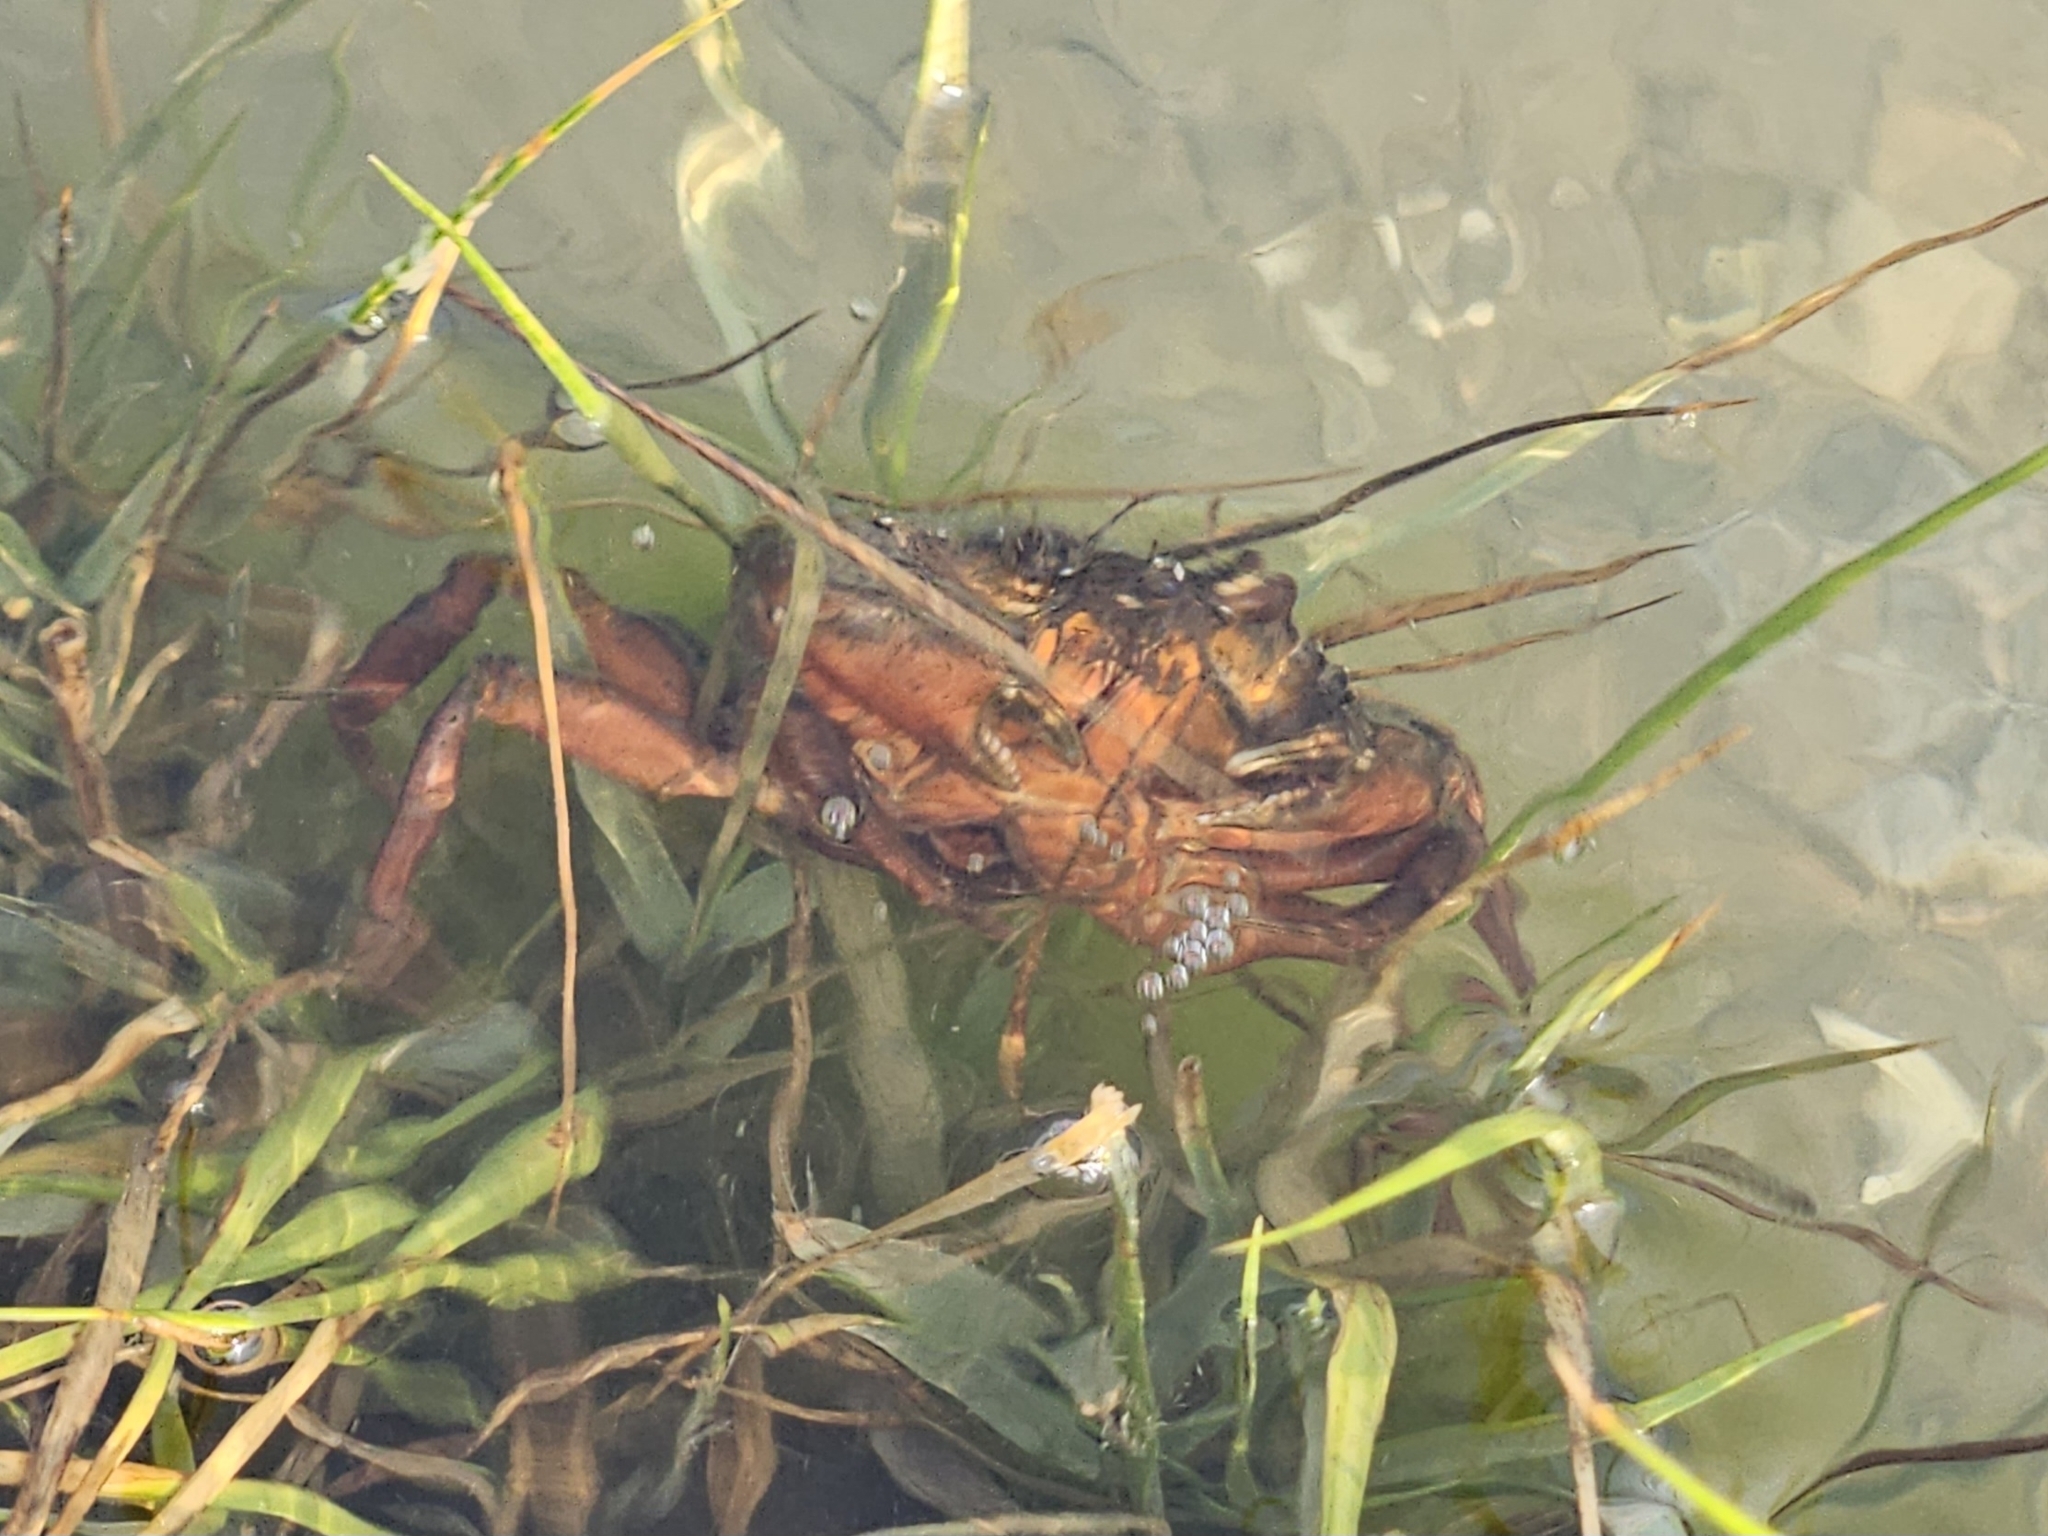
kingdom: Animalia
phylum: Arthropoda
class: Malacostraca
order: Decapoda
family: Carcinidae
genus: Carcinus
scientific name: Carcinus maenas
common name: European green crab
